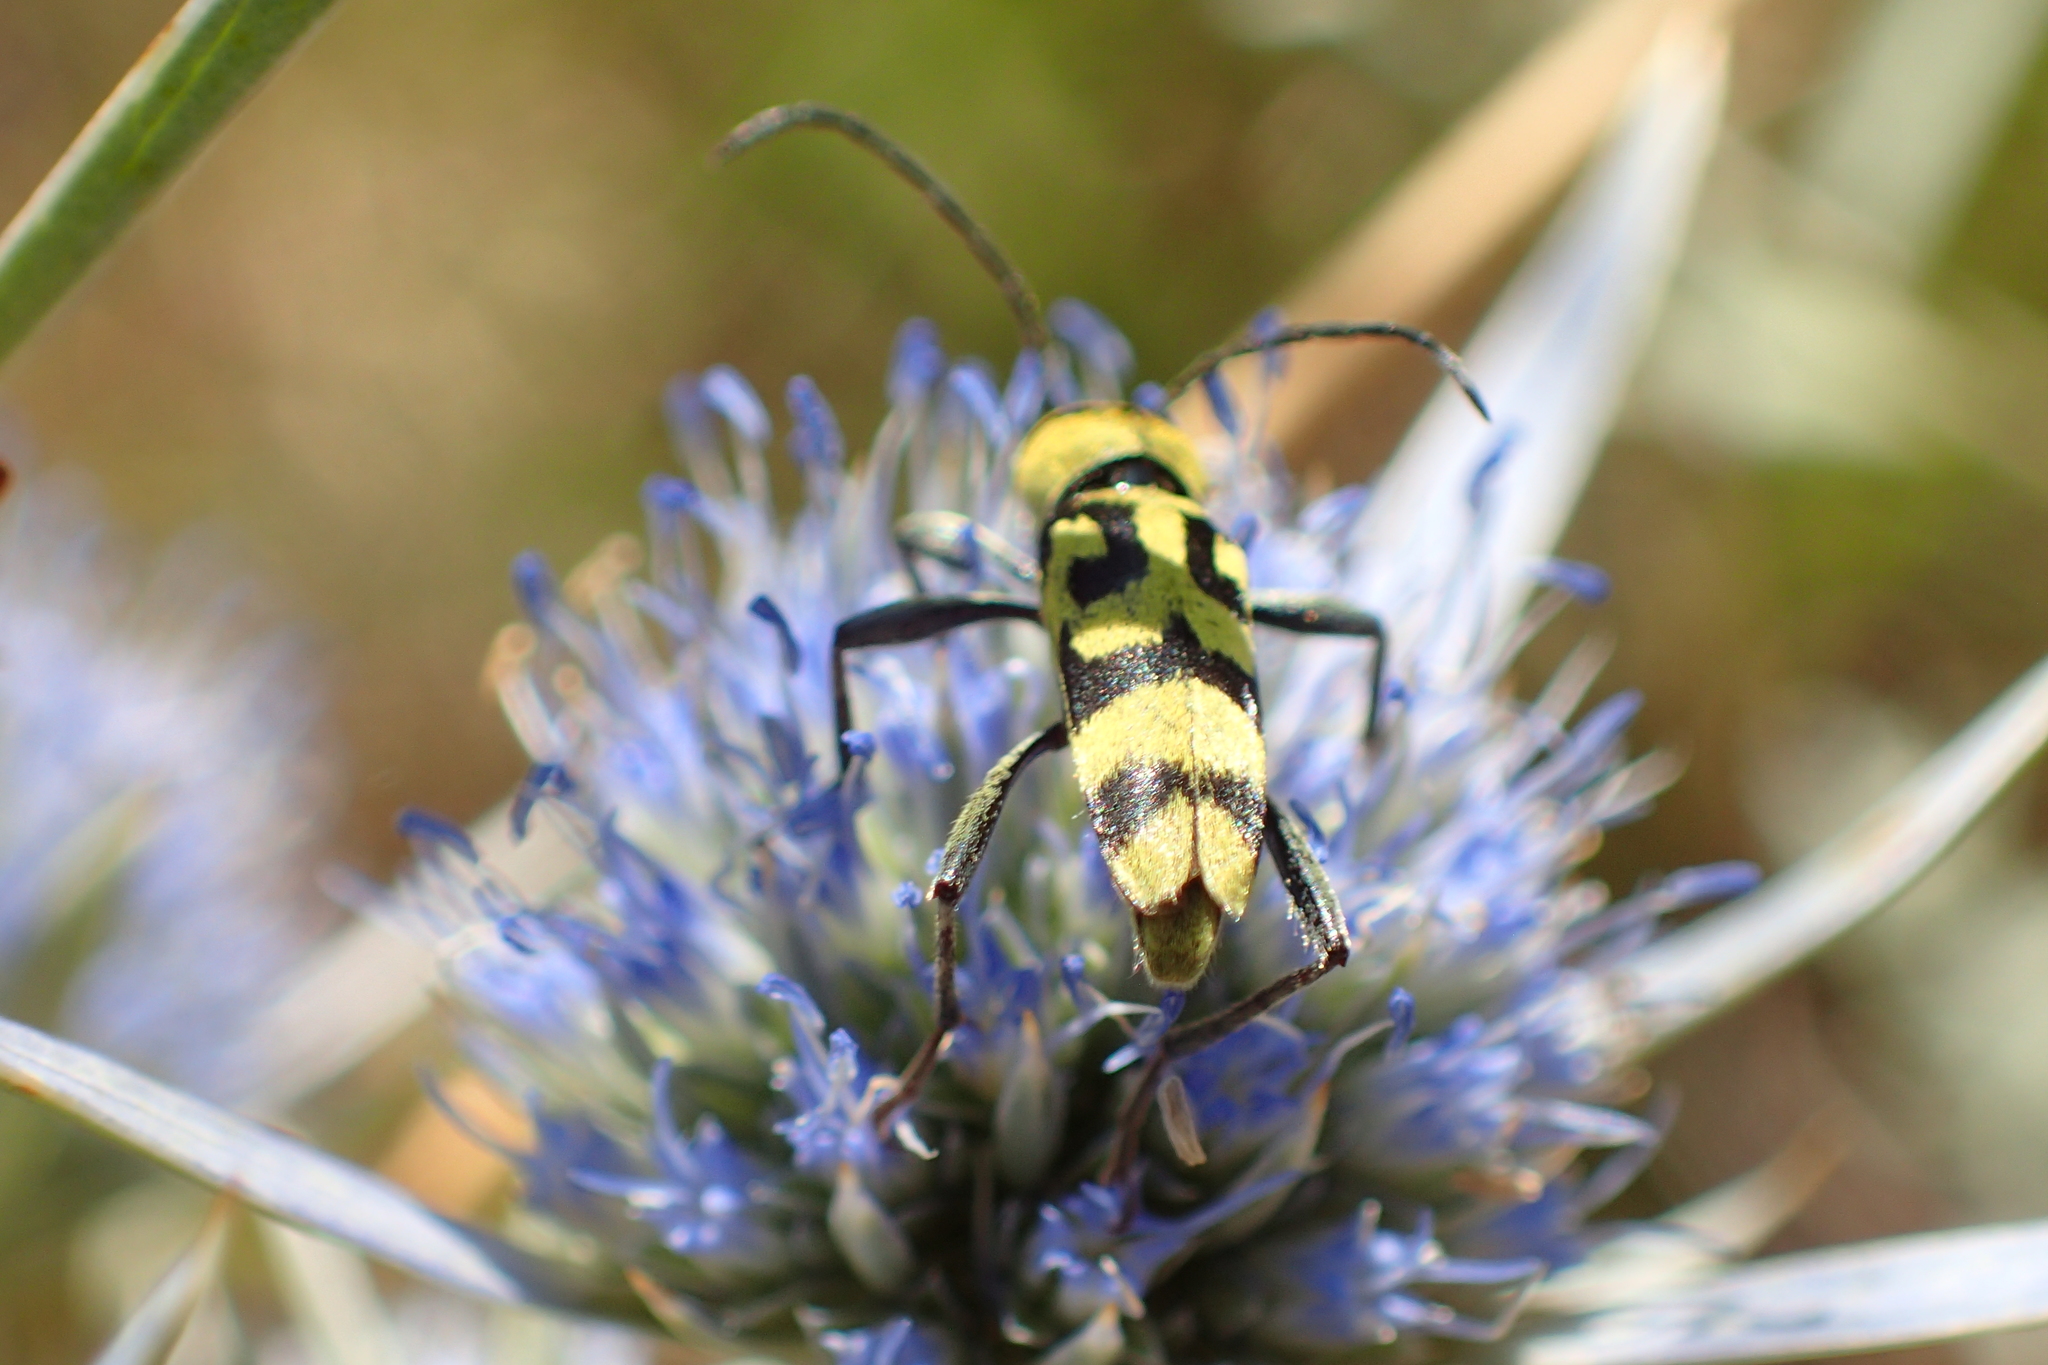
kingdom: Animalia
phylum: Arthropoda
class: Insecta
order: Coleoptera
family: Cerambycidae
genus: Chlorophorus
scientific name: Chlorophorus varius
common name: Grape wood borer
